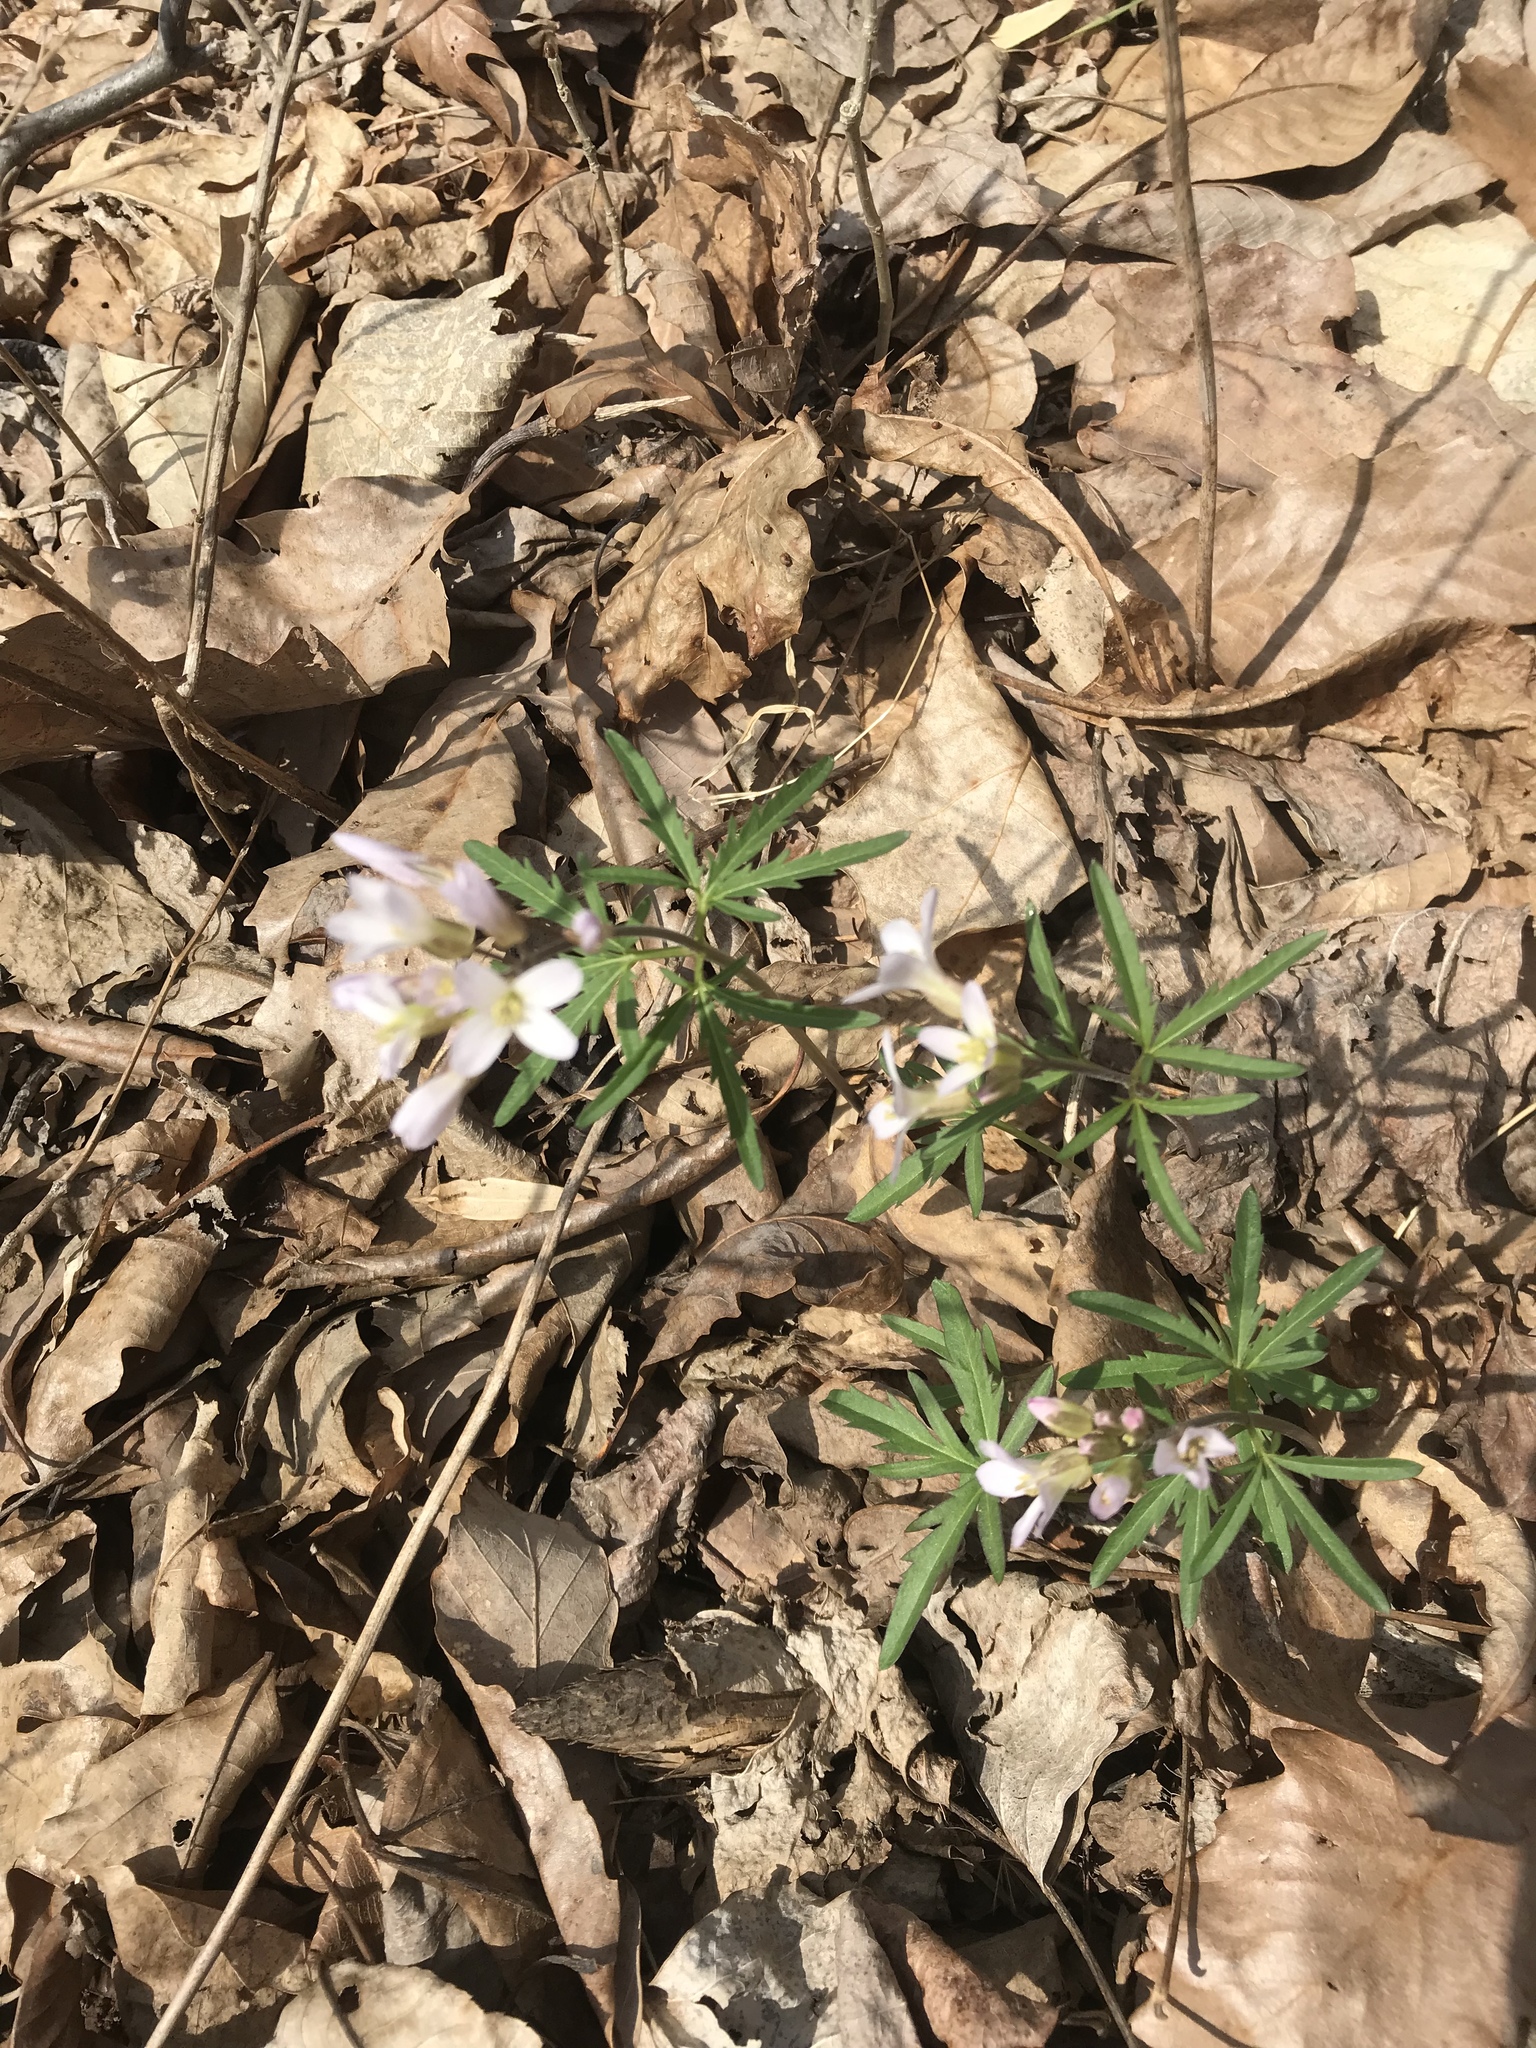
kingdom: Plantae
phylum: Tracheophyta
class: Magnoliopsida
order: Brassicales
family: Brassicaceae
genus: Cardamine
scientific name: Cardamine concatenata
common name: Cut-leaf toothcup
